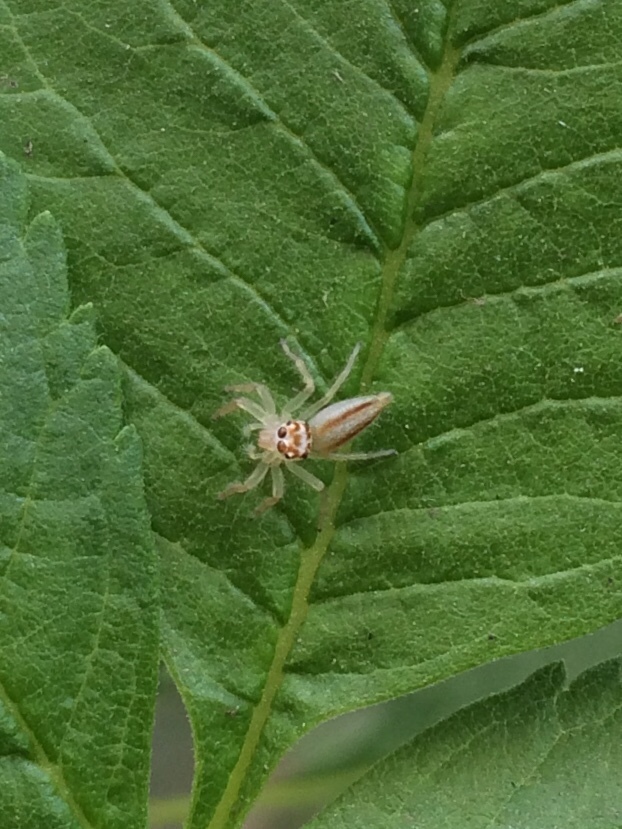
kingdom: Animalia
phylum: Arthropoda
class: Arachnida
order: Araneae
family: Salticidae
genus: Telamonia
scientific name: Telamonia dimidiata
